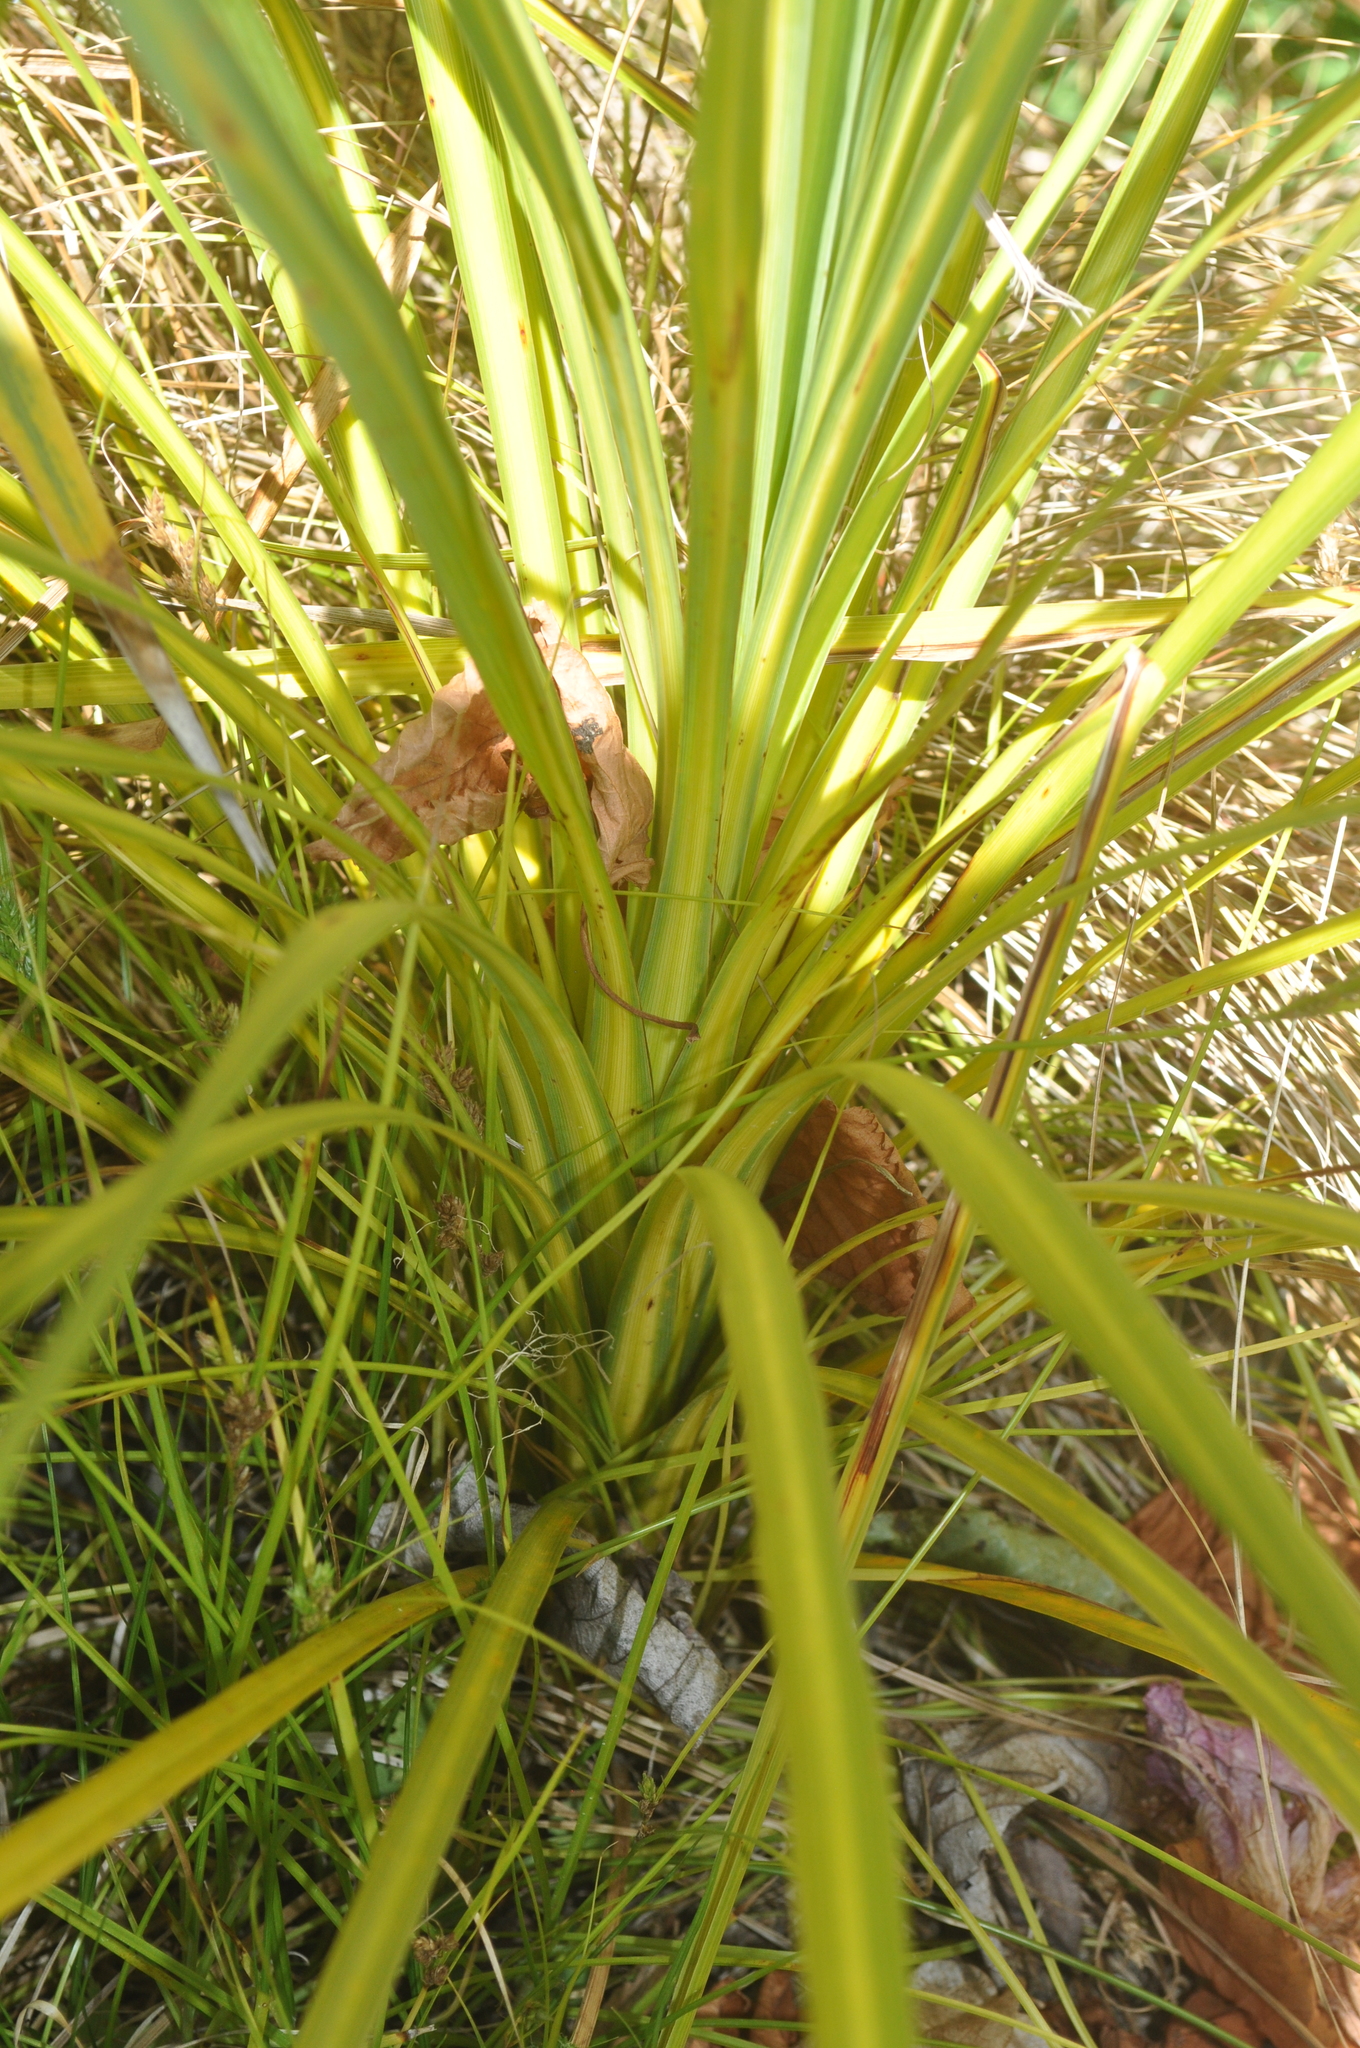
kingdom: Plantae
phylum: Tracheophyta
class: Liliopsida
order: Asparagales
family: Asparagaceae
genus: Cordyline
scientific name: Cordyline australis
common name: Cabbage-palm
